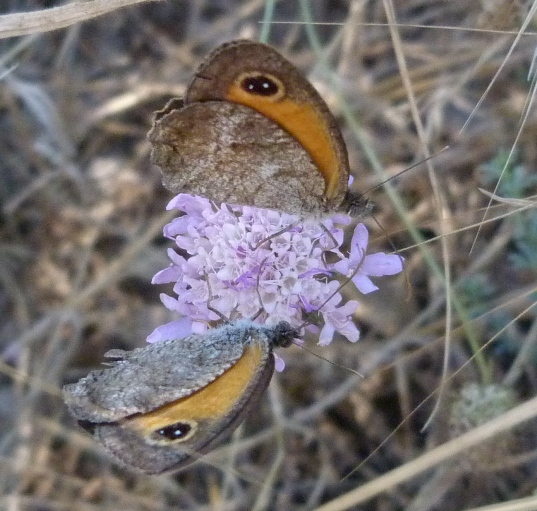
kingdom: Animalia
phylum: Arthropoda
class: Insecta
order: Lepidoptera
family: Nymphalidae
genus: Pyronia
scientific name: Pyronia cecilia
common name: Southern gatekeeper
